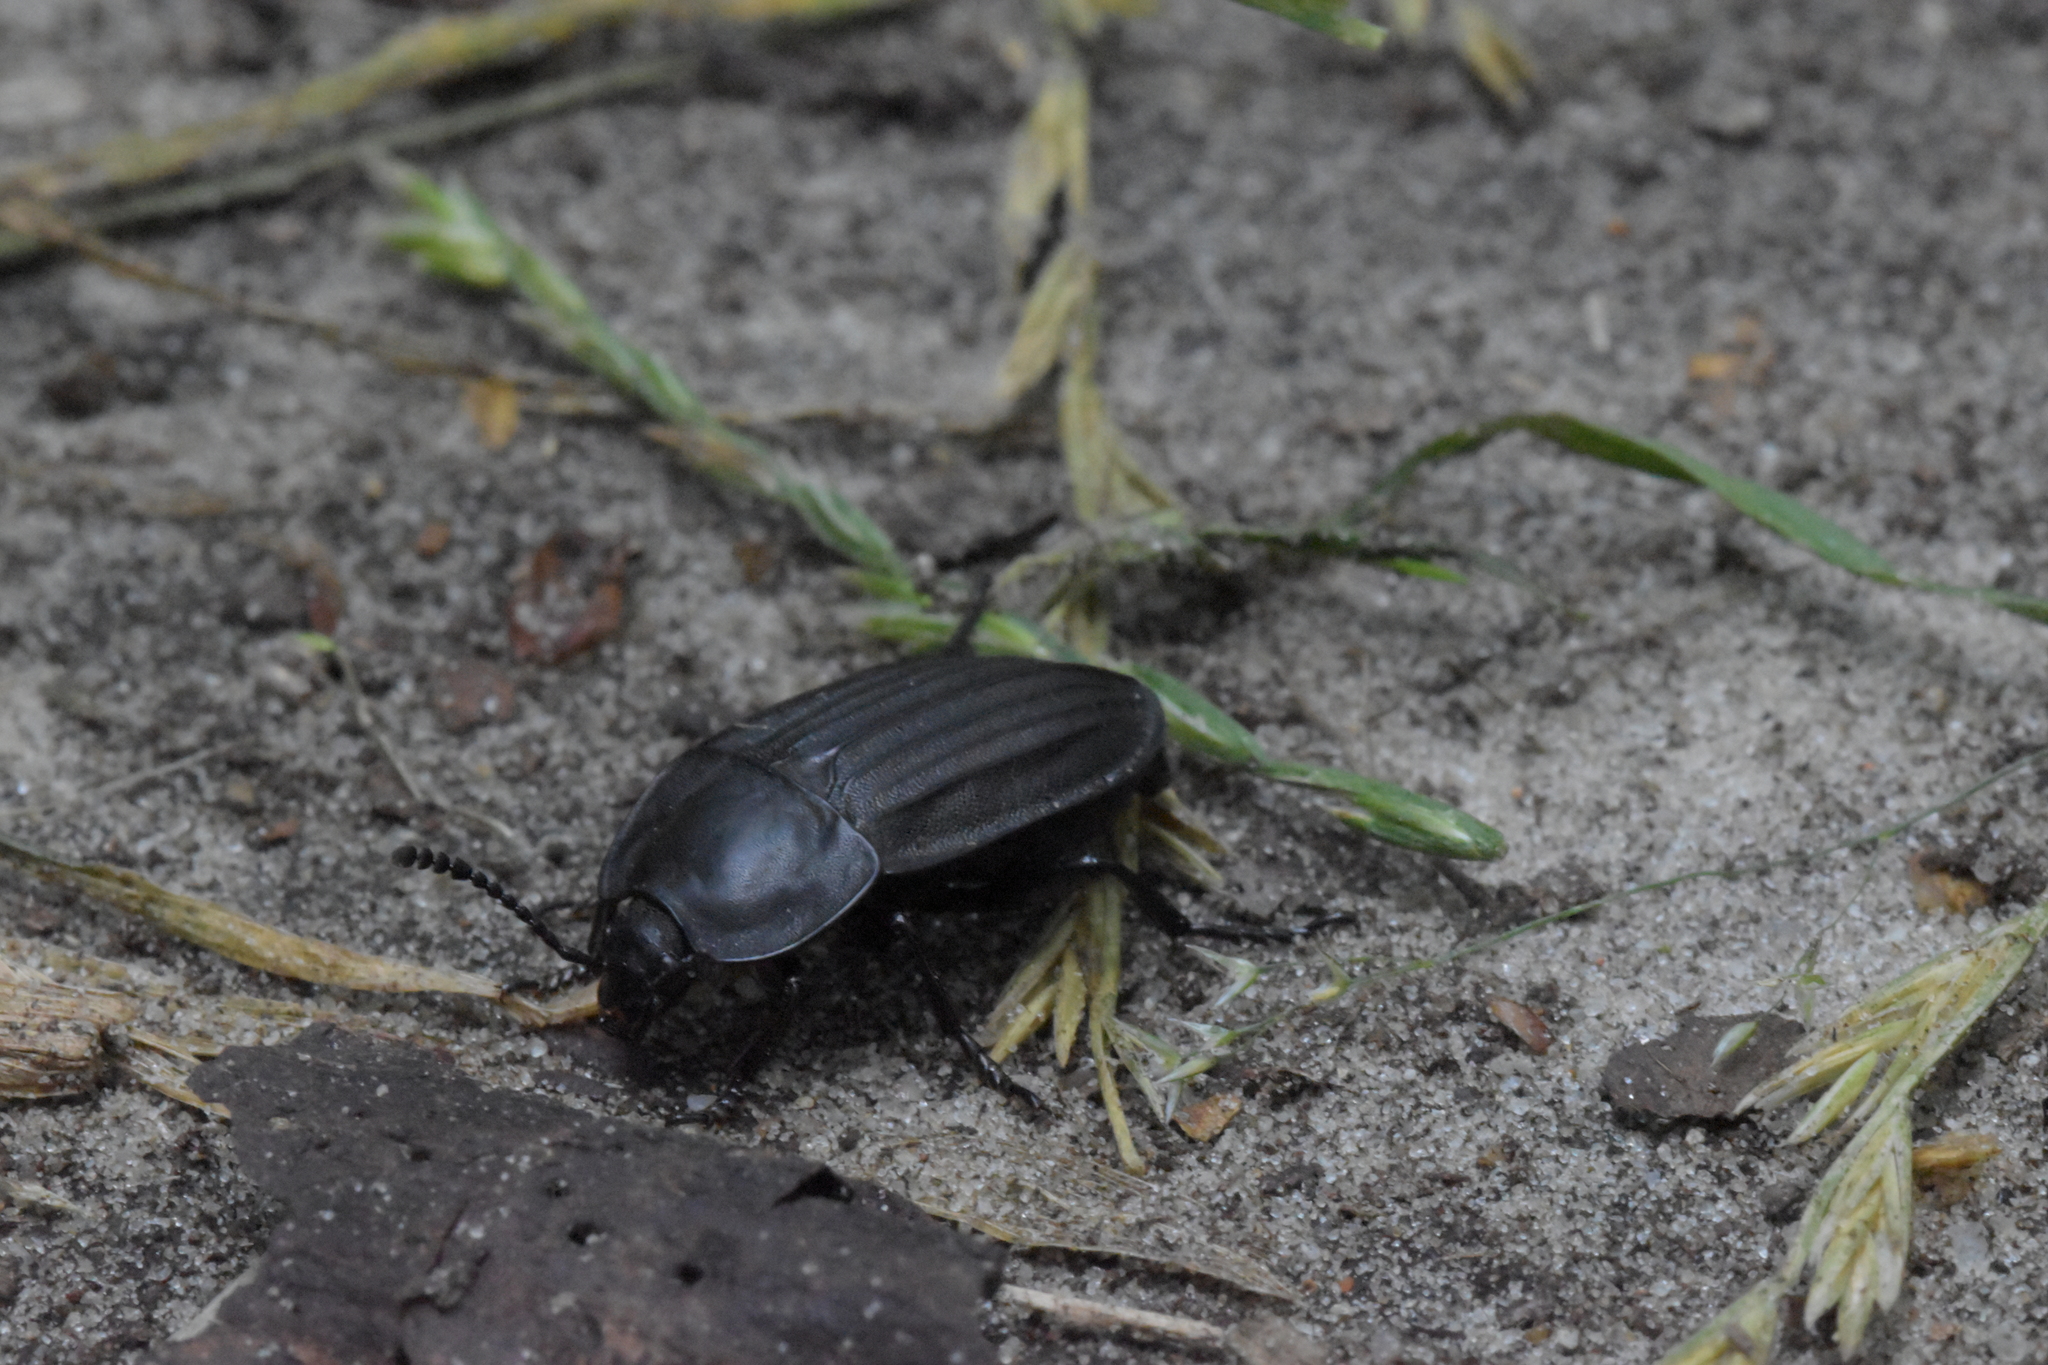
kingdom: Animalia
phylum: Arthropoda
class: Insecta
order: Coleoptera
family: Staphylinidae
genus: Silpha
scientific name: Silpha carinata
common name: Silphid beetle
